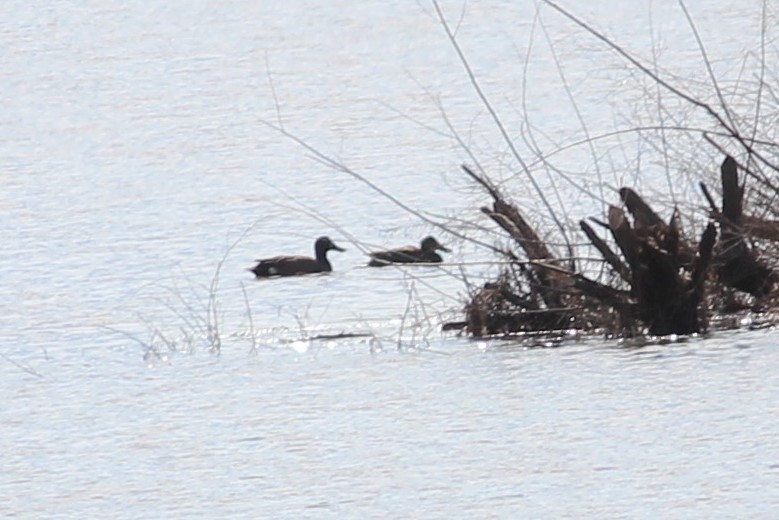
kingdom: Animalia
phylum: Chordata
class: Aves
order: Anseriformes
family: Anatidae
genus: Spatula
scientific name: Spatula discors
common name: Blue-winged teal
